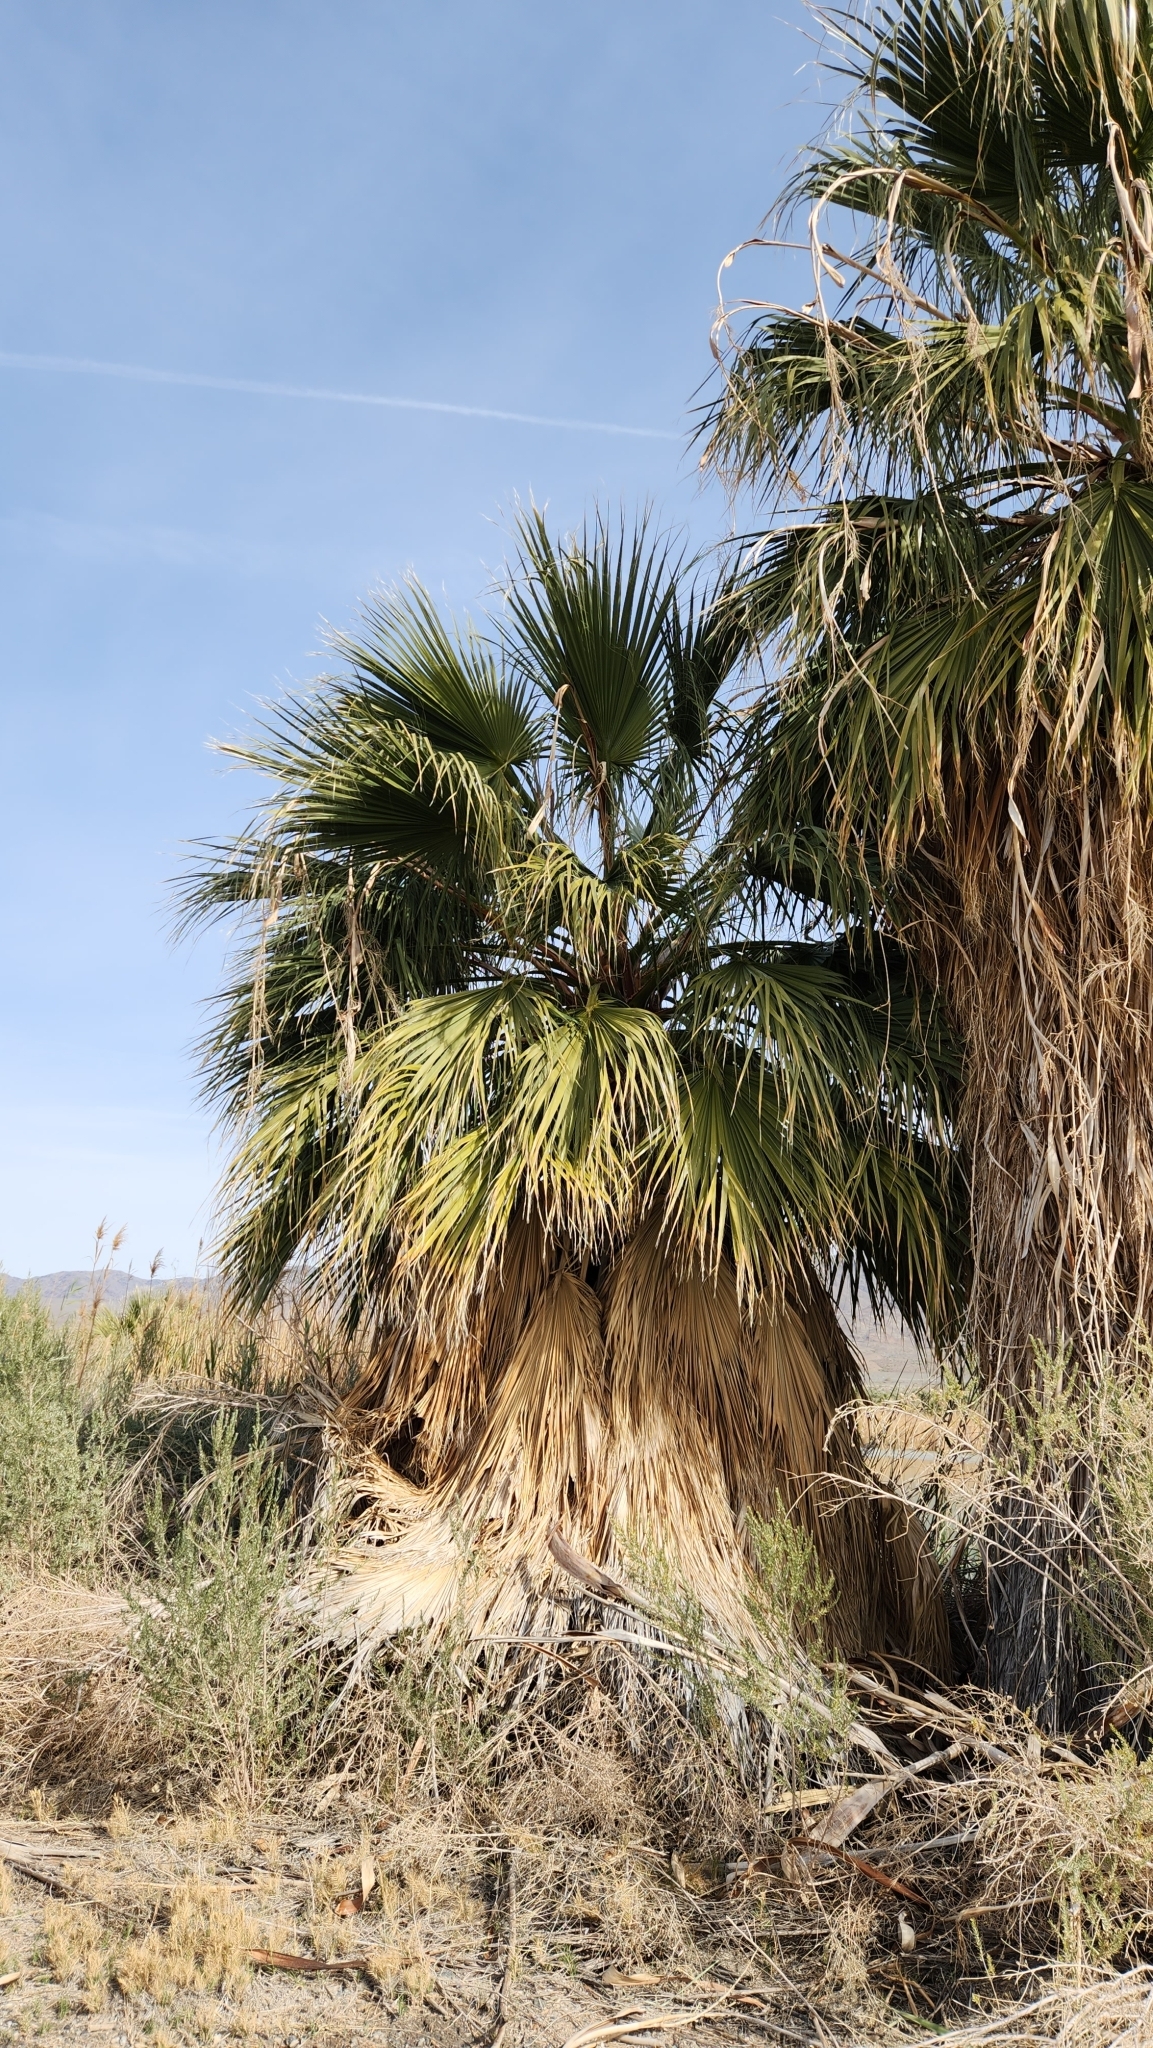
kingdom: Plantae
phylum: Tracheophyta
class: Liliopsida
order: Arecales
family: Arecaceae
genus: Washingtonia
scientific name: Washingtonia filifera
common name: California fan palm
